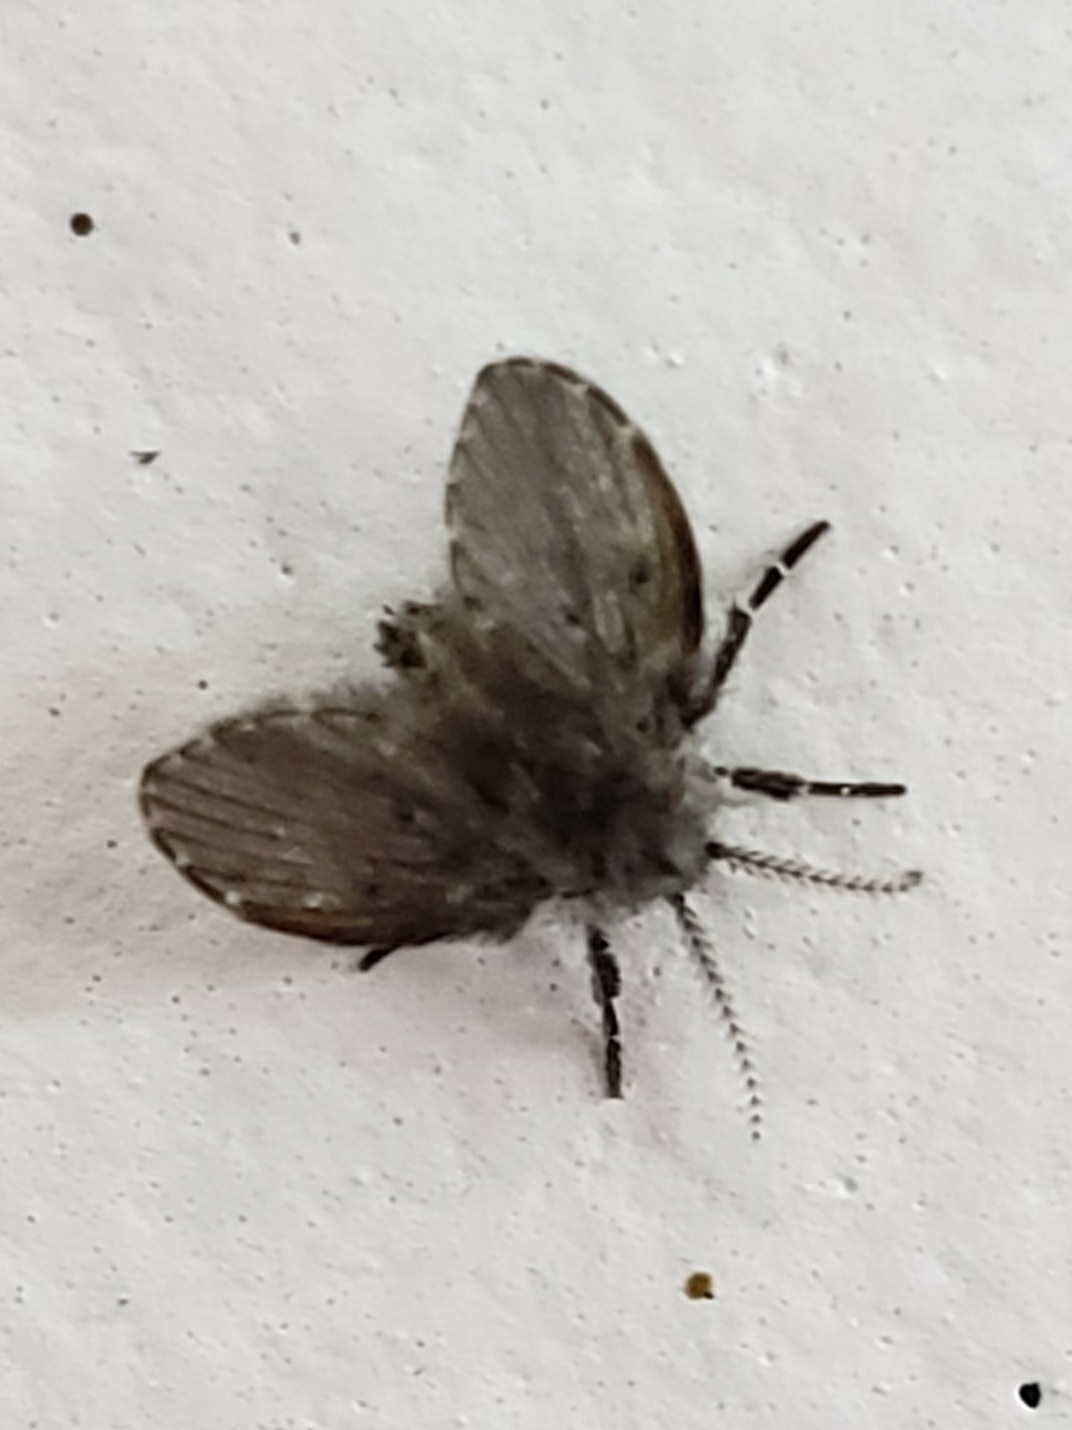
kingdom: Animalia
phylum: Arthropoda
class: Insecta
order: Diptera
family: Psychodidae
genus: Clogmia
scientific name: Clogmia albipunctatus
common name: White-spotted moth fly
